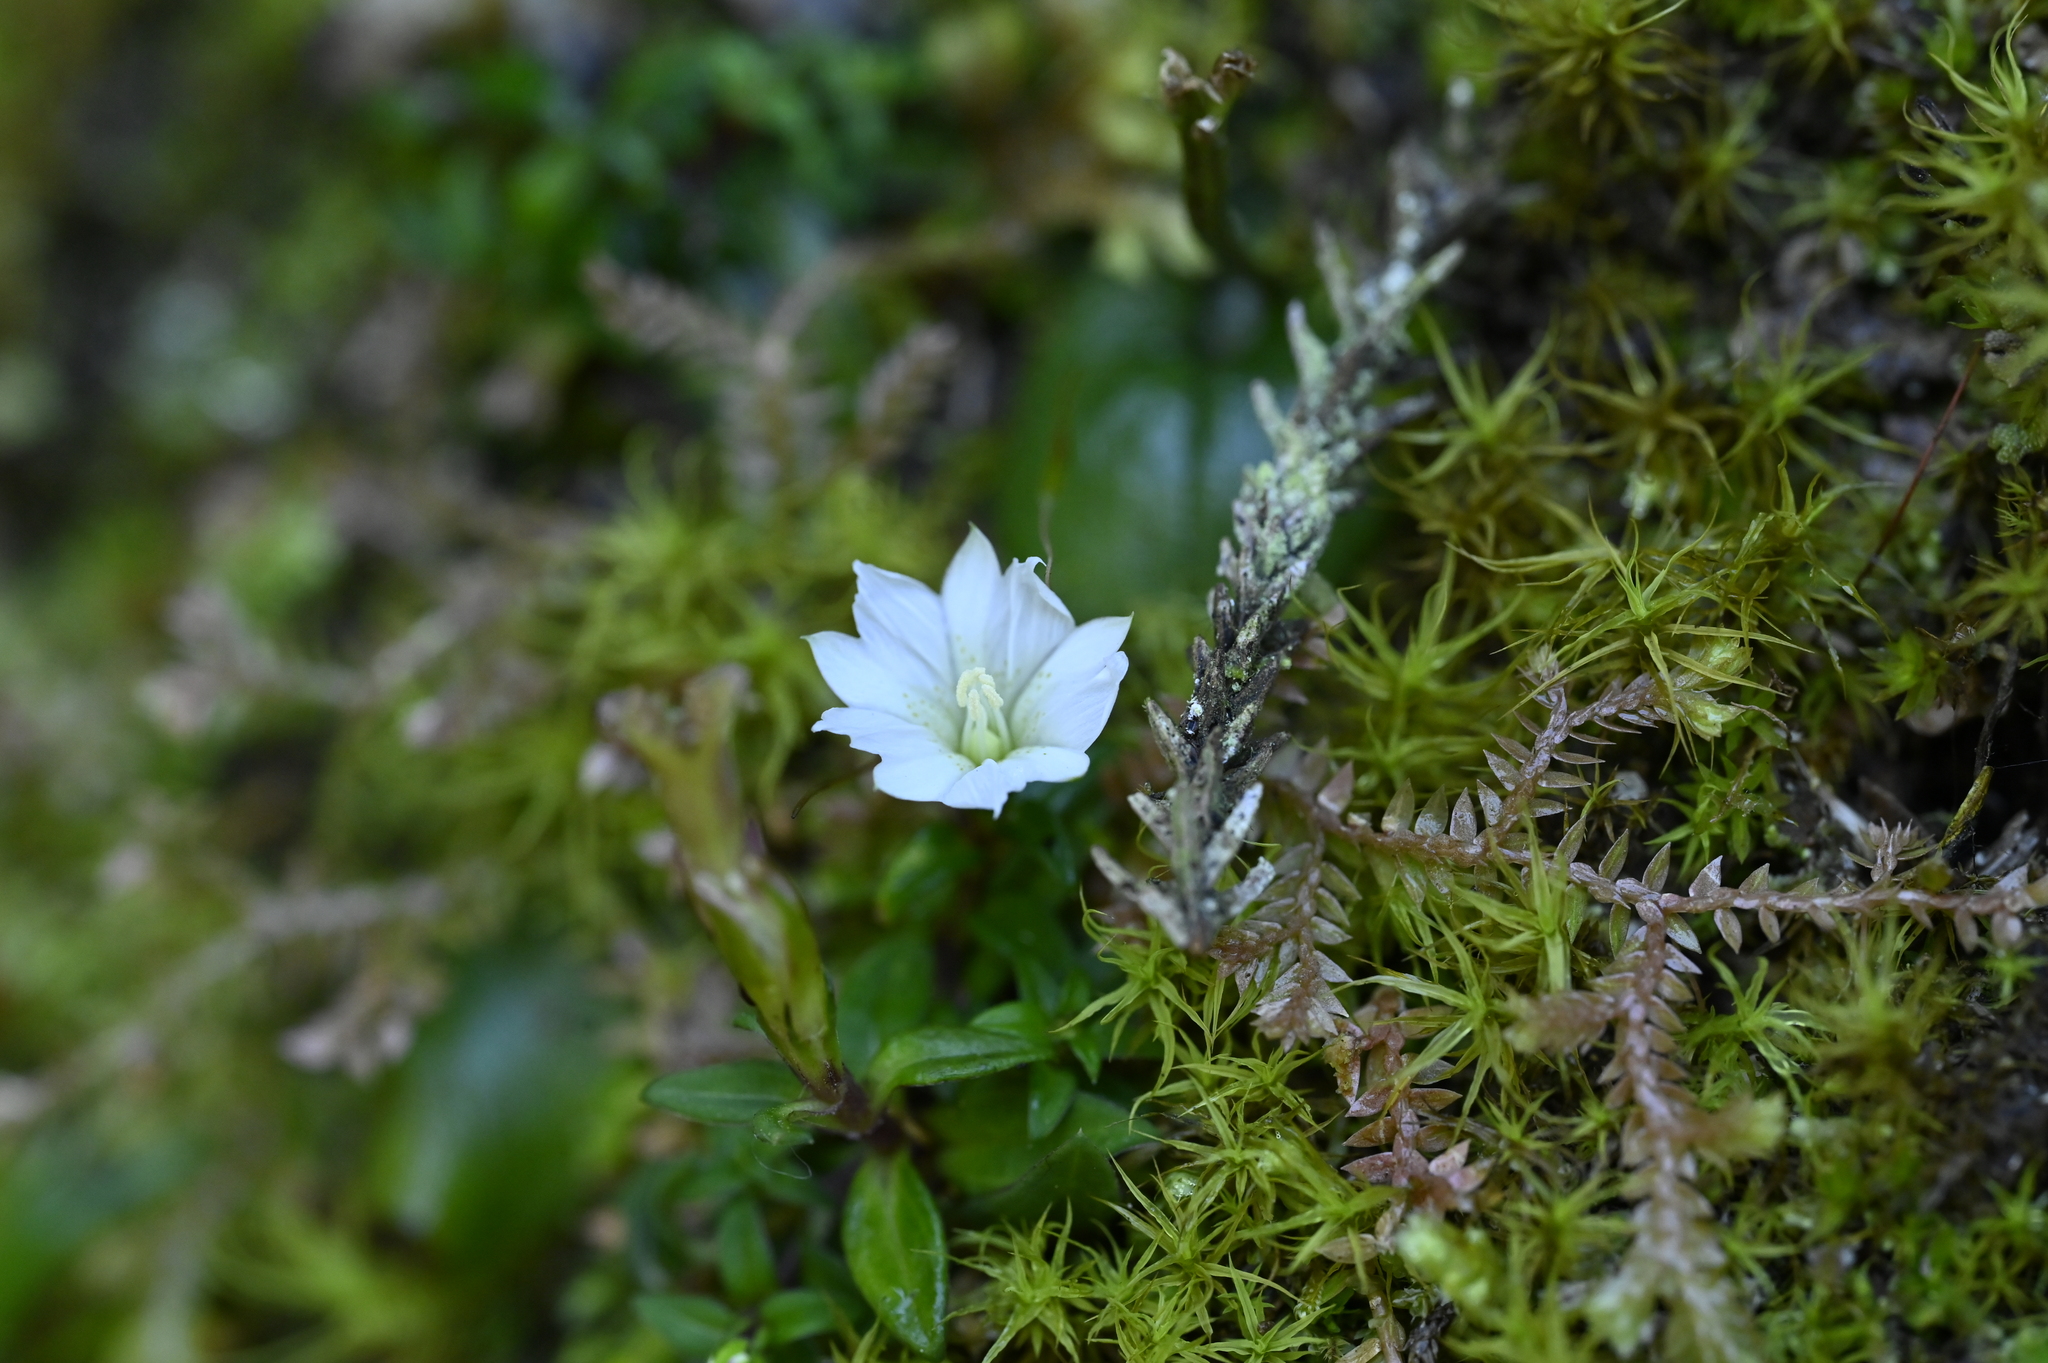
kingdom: Plantae
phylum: Tracheophyta
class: Magnoliopsida
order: Gentianales
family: Gentianaceae
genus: Gentiana
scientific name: Gentiana flavomaculata
